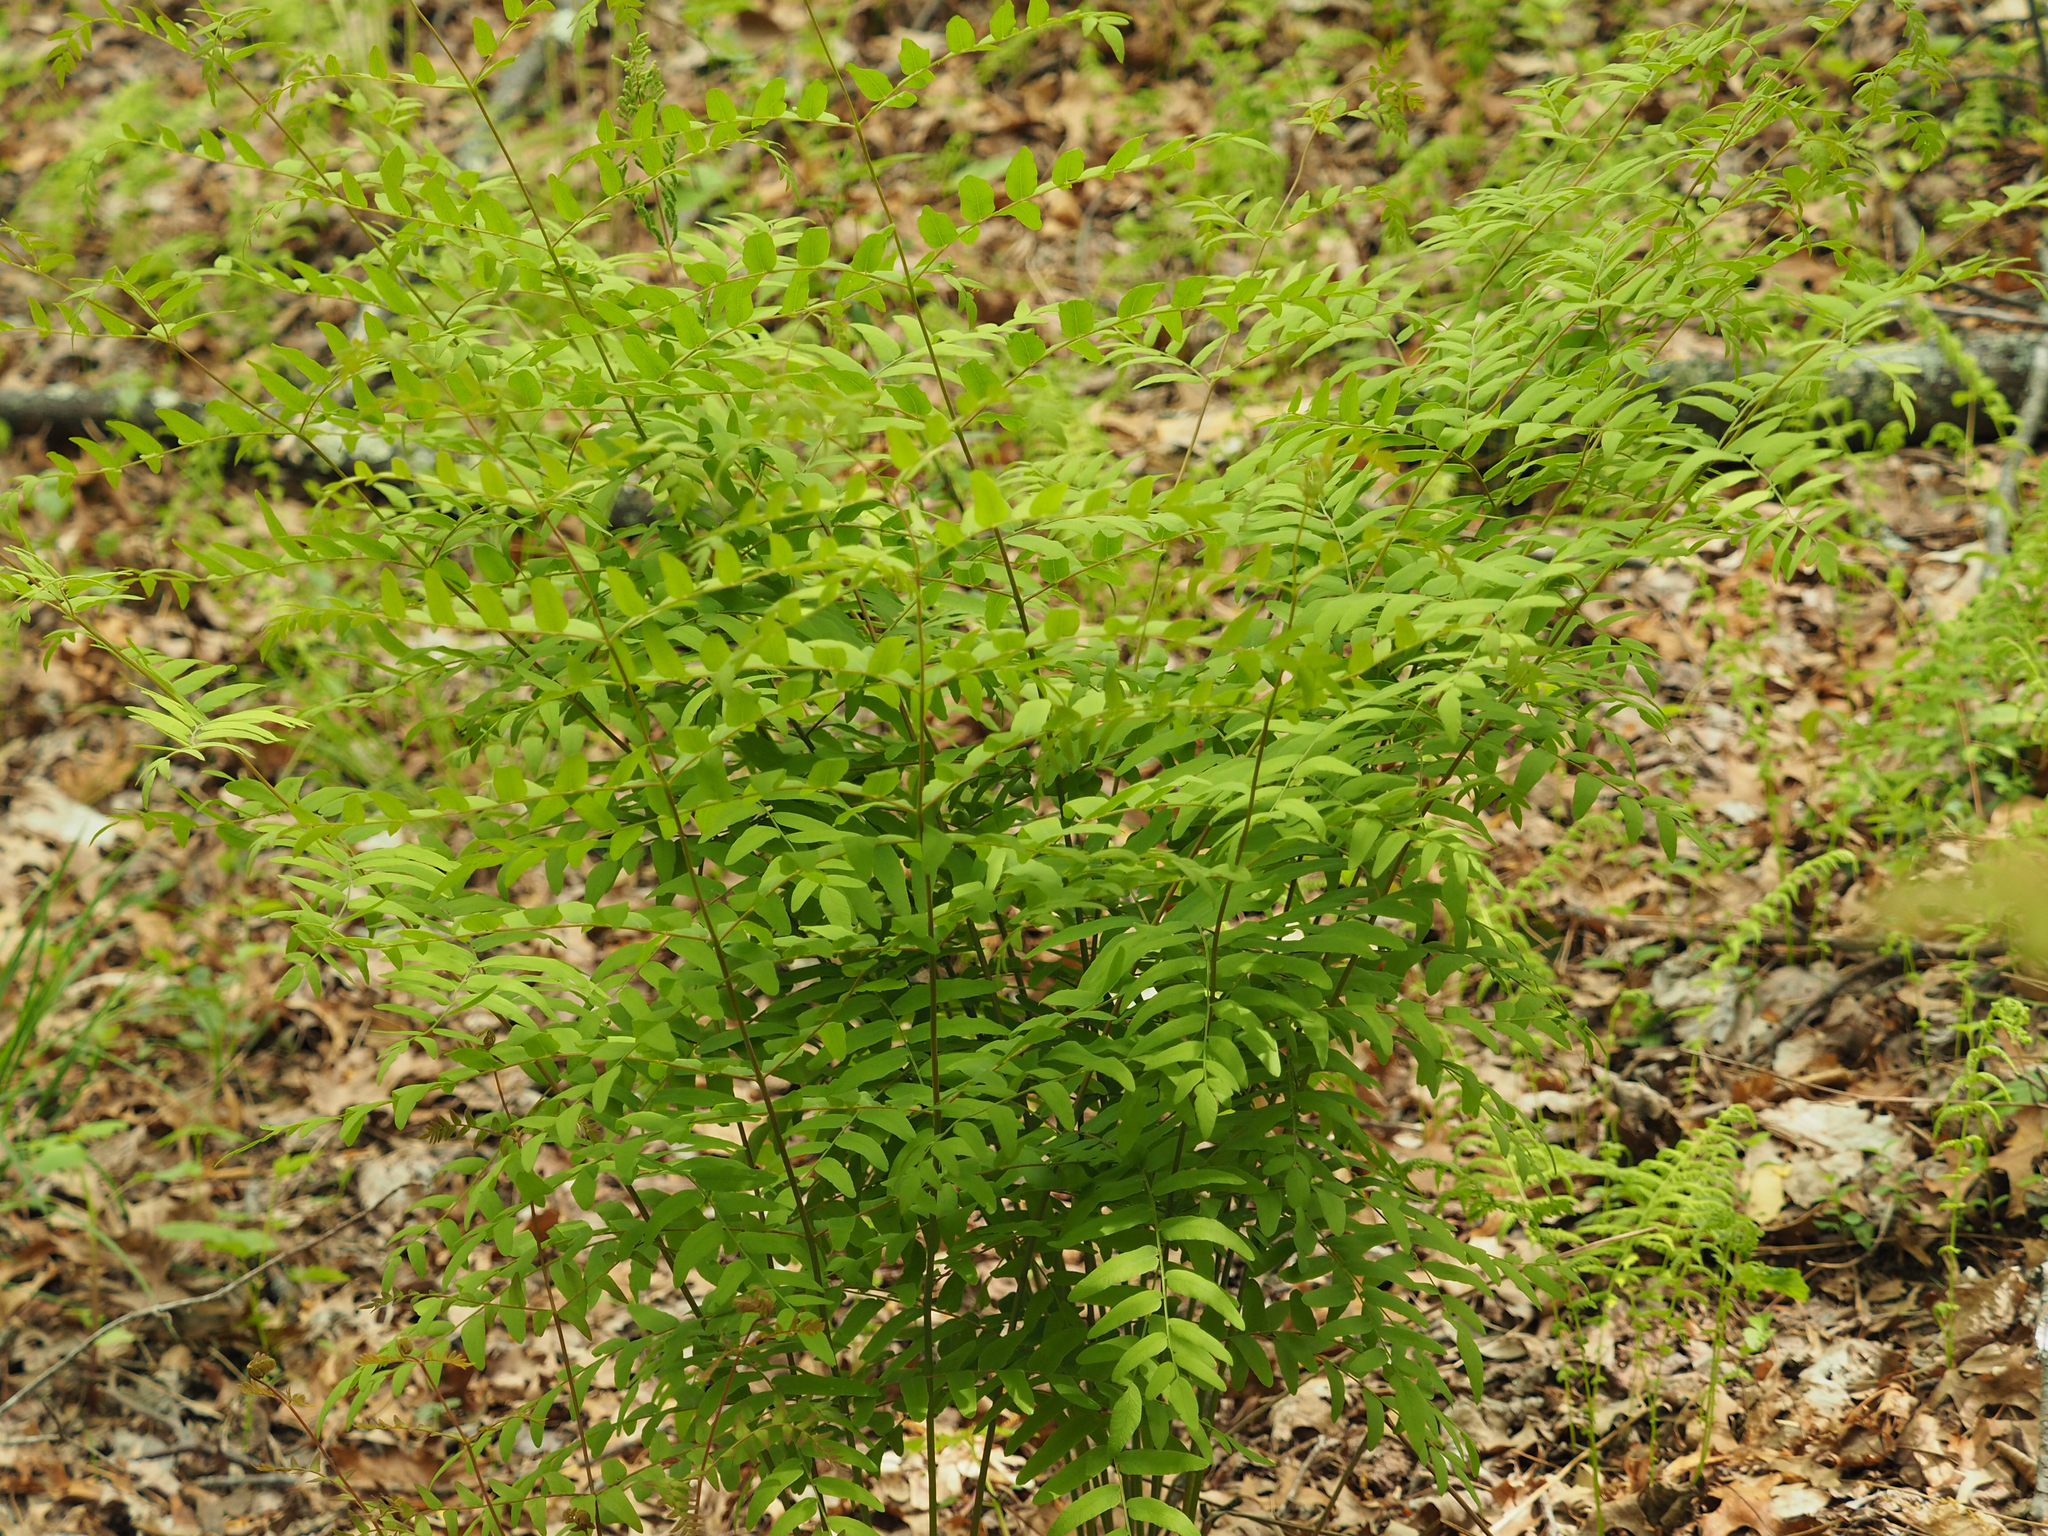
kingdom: Plantae
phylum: Tracheophyta
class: Polypodiopsida
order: Osmundales
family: Osmundaceae
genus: Osmunda
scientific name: Osmunda spectabilis
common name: American royal fern
